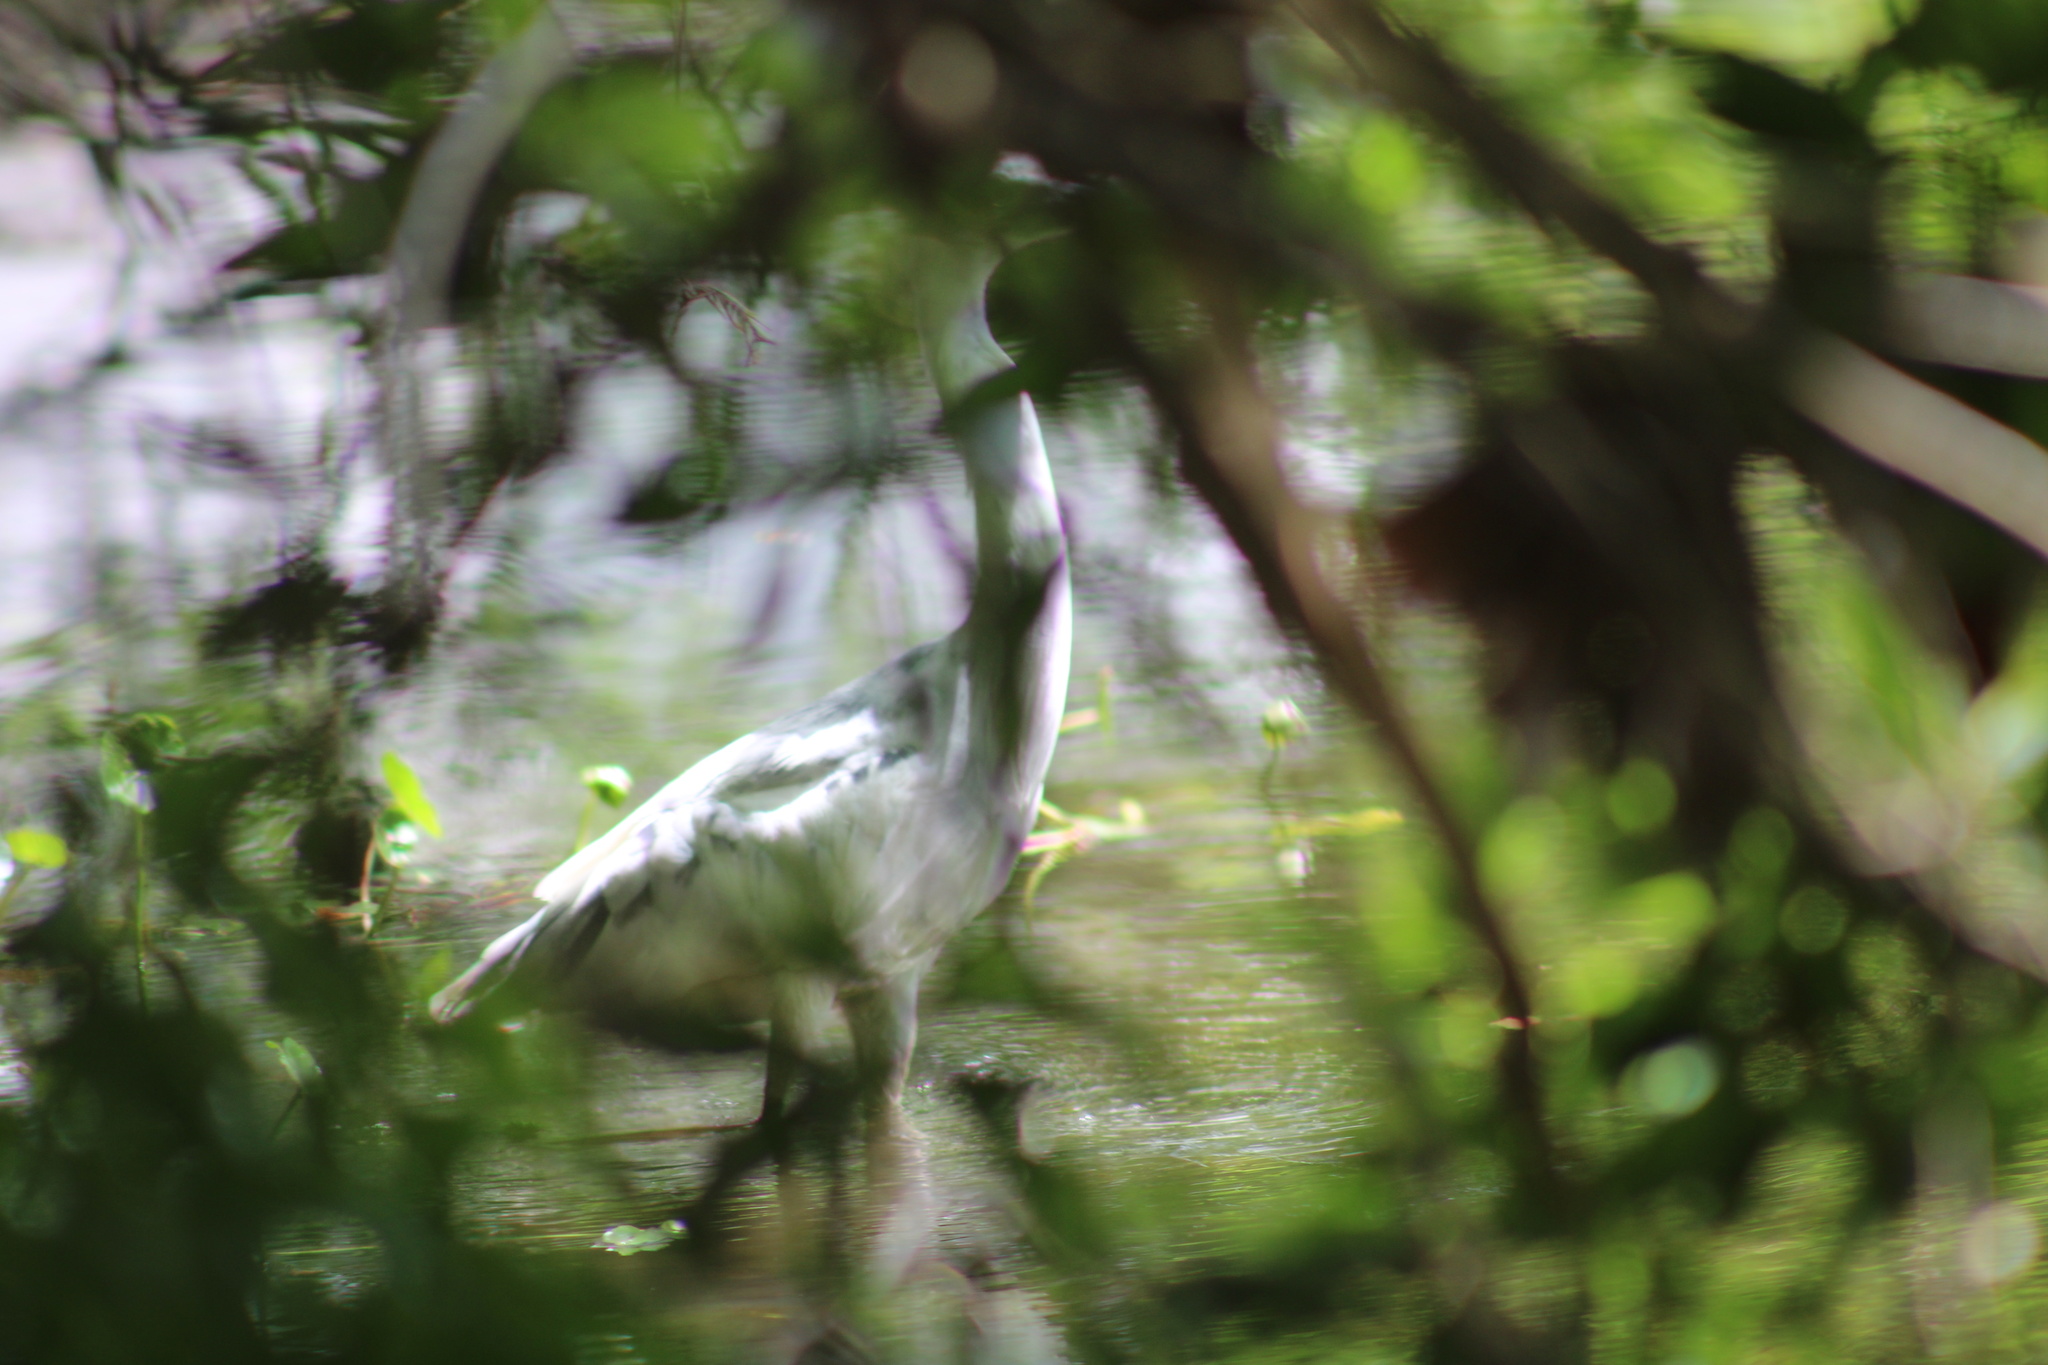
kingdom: Animalia
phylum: Chordata
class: Aves
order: Pelecaniformes
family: Ardeidae
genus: Egretta
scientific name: Egretta caerulea
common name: Little blue heron
